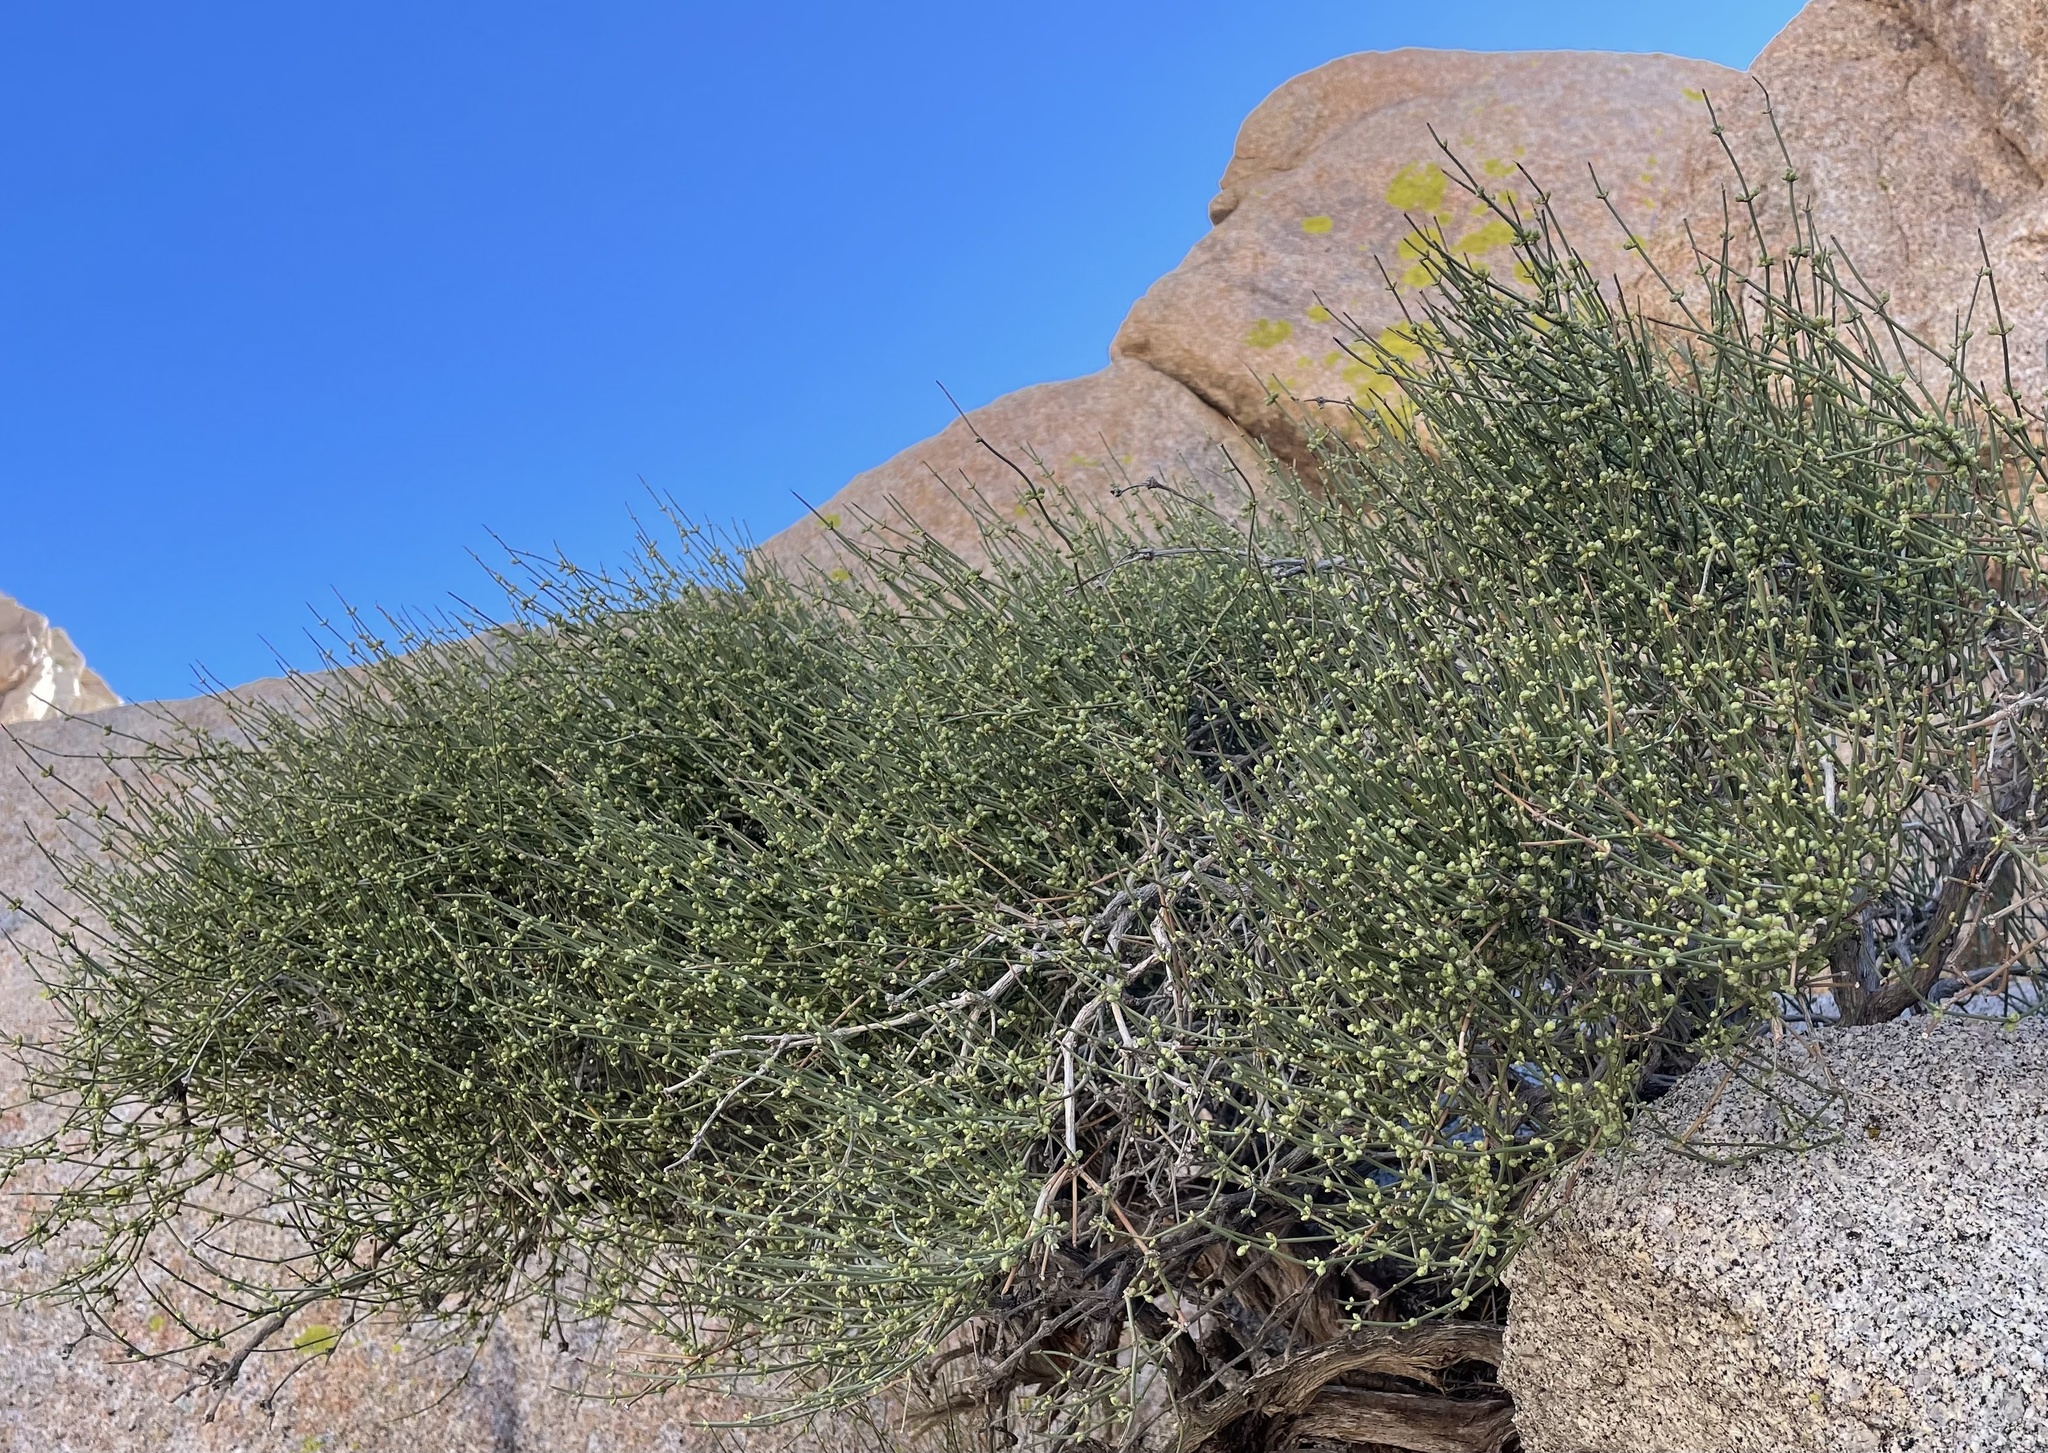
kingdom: Plantae
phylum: Tracheophyta
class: Gnetopsida
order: Ephedrales
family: Ephedraceae
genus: Ephedra
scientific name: Ephedra aspera
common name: Boundary ephedra
